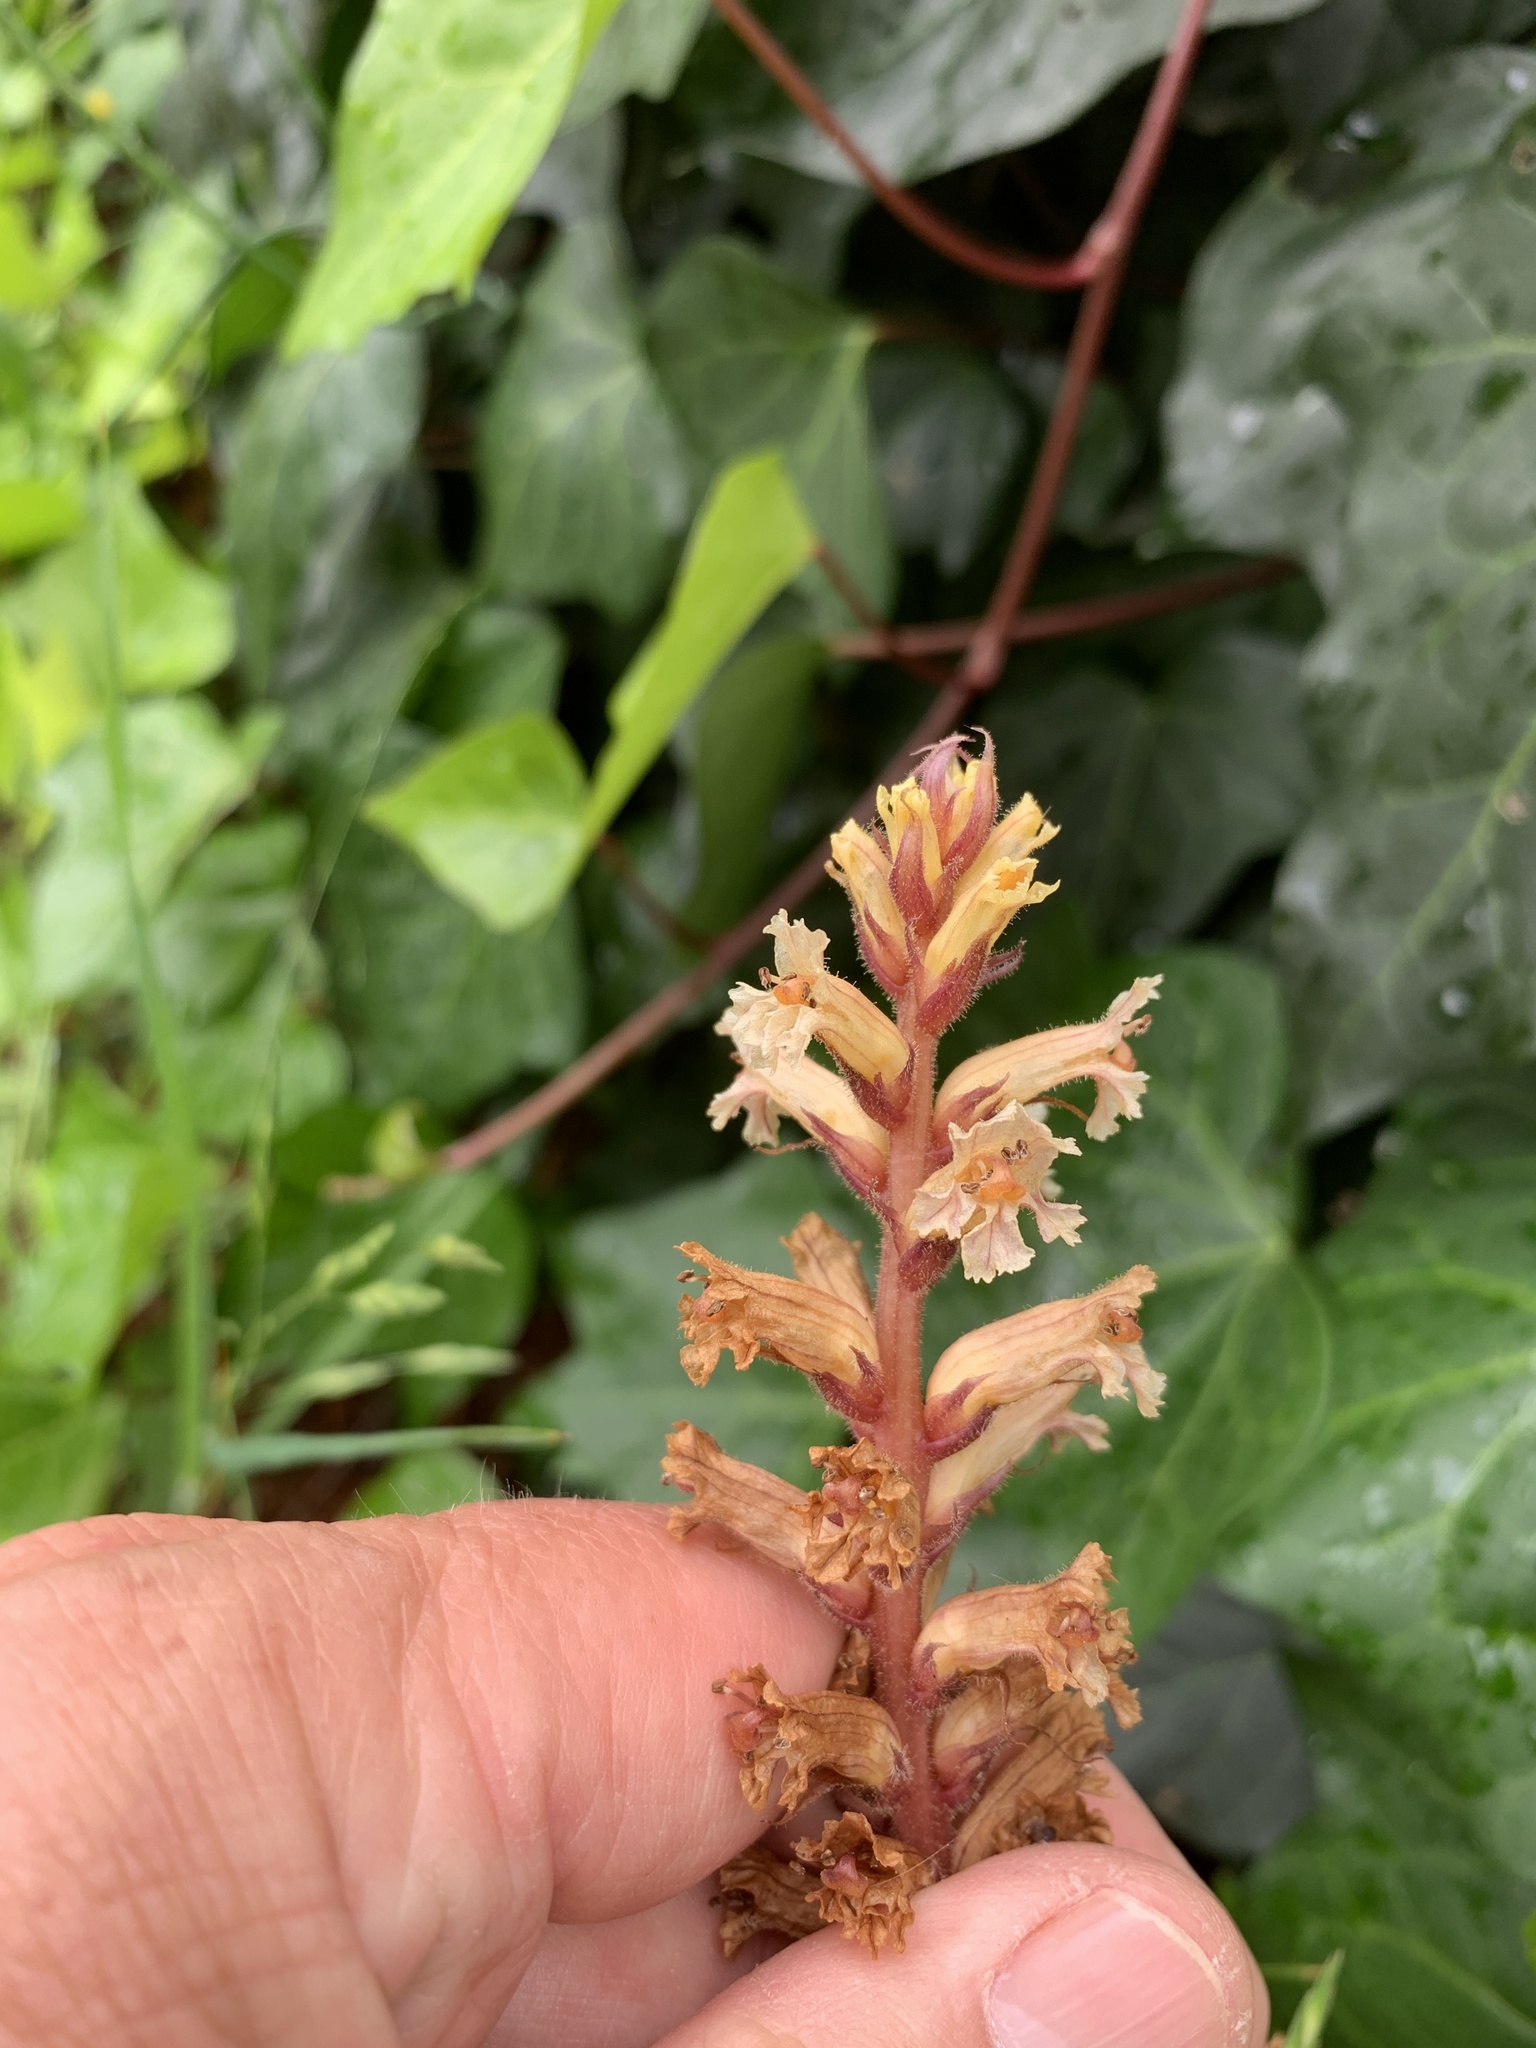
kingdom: Plantae
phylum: Tracheophyta
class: Magnoliopsida
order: Lamiales
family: Orobanchaceae
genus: Orobanche
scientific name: Orobanche hederae
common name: Ivy broomrape
